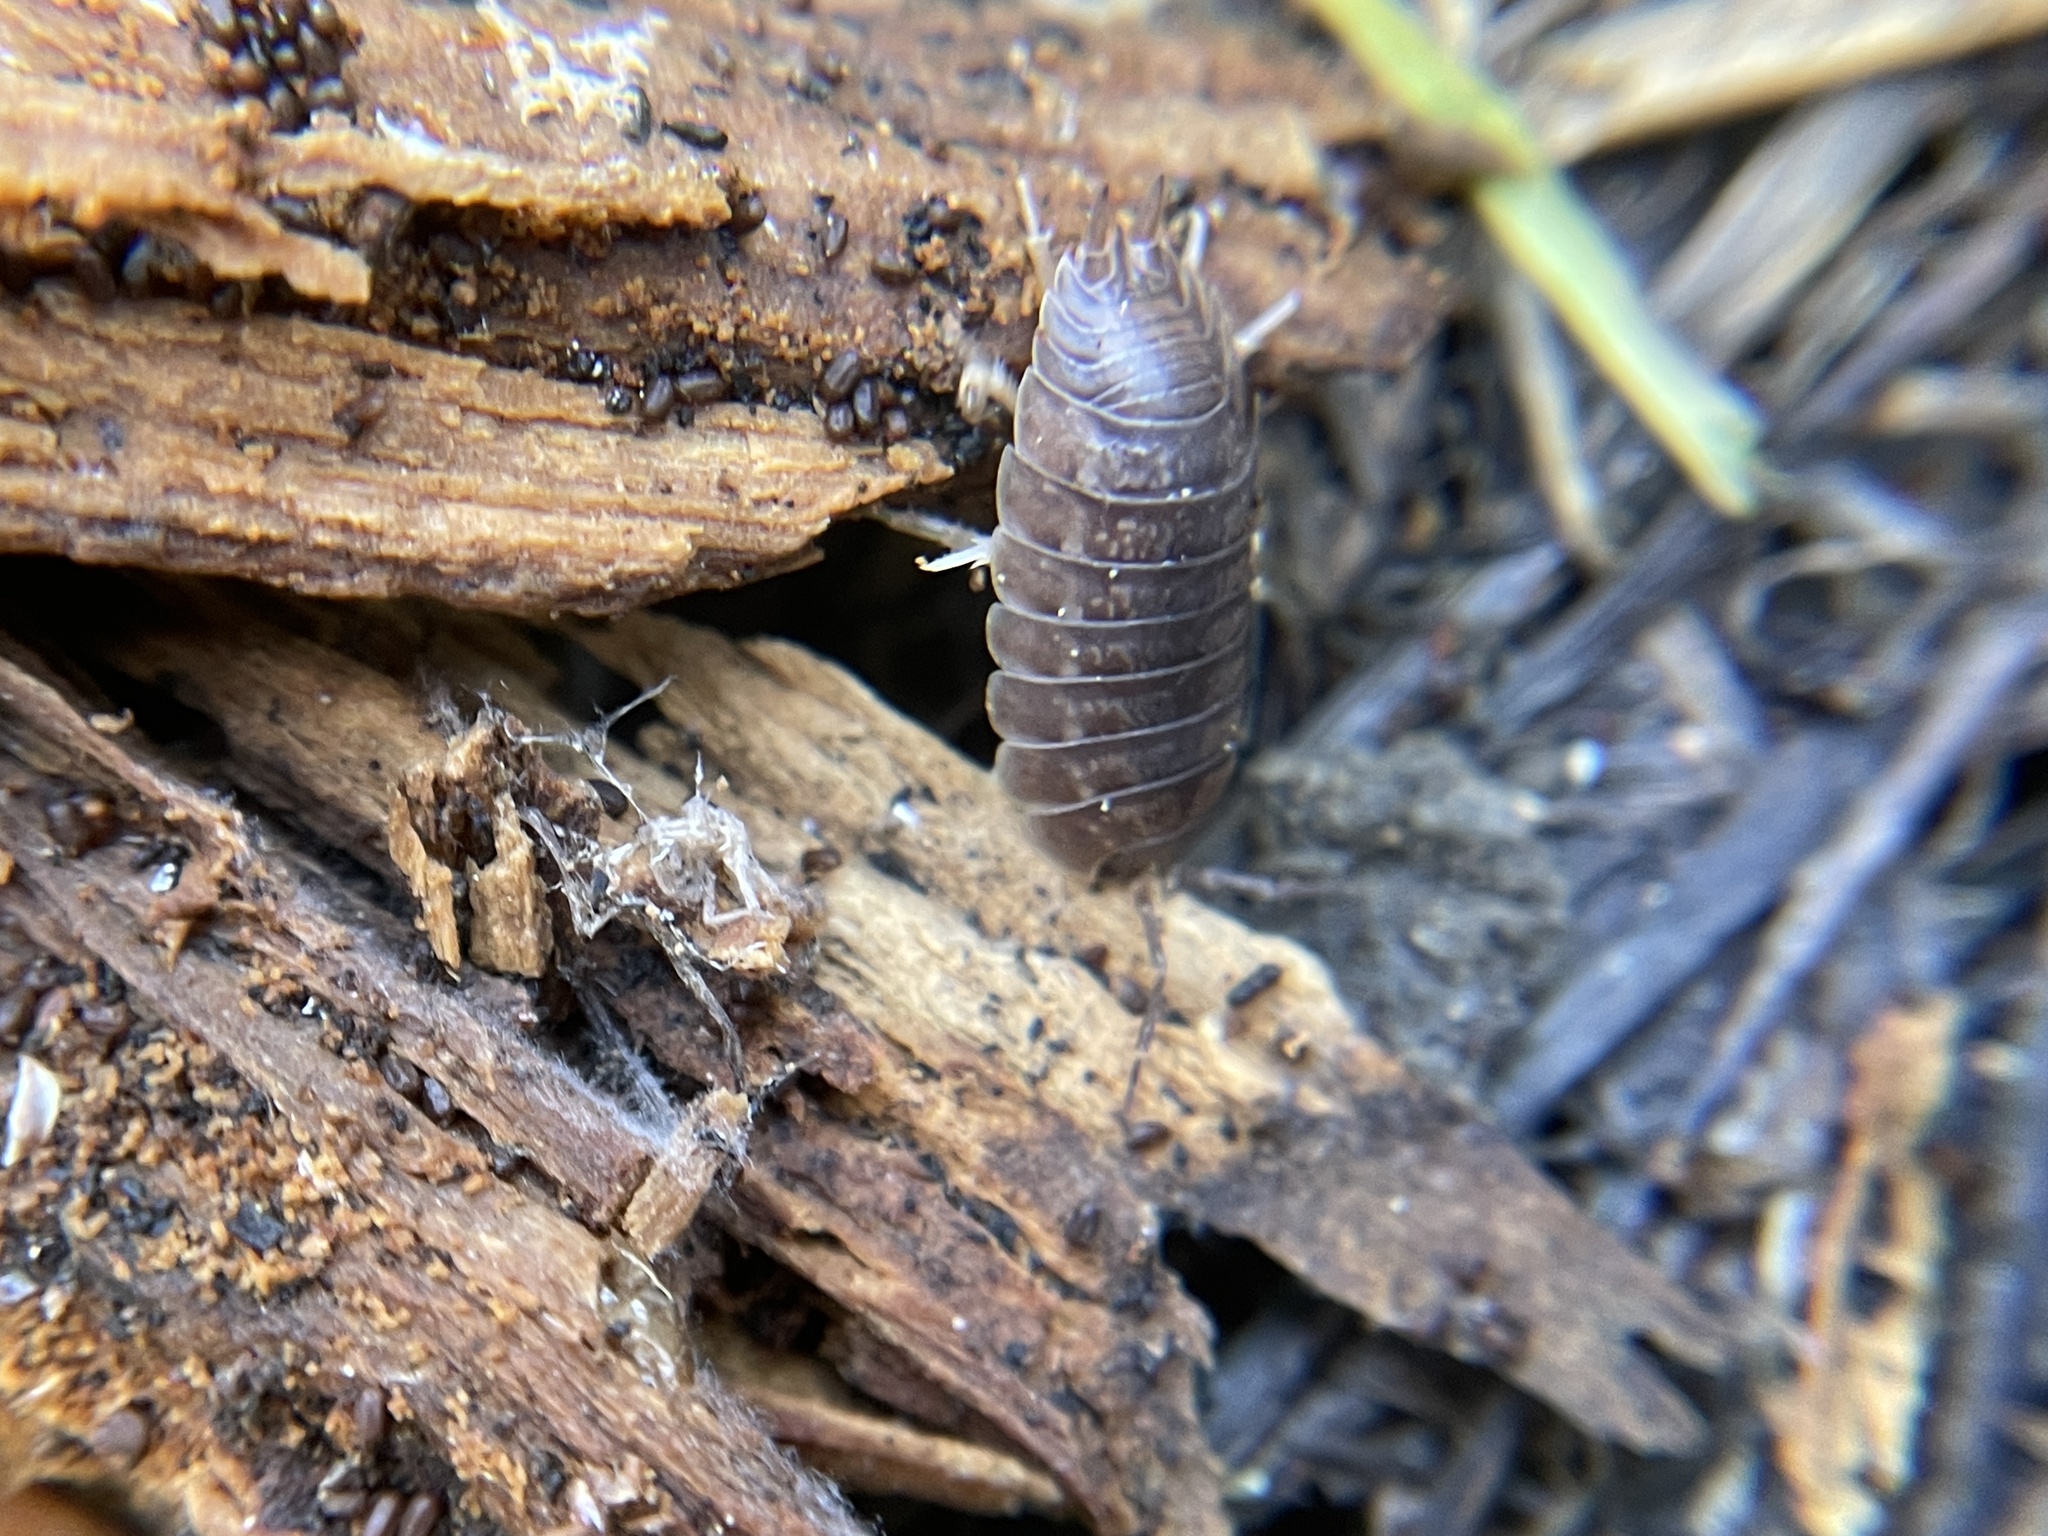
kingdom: Animalia
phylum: Arthropoda
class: Malacostraca
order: Isopoda
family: Porcellionidae
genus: Porcellio
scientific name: Porcellio laevis
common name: Swift woodlouse
